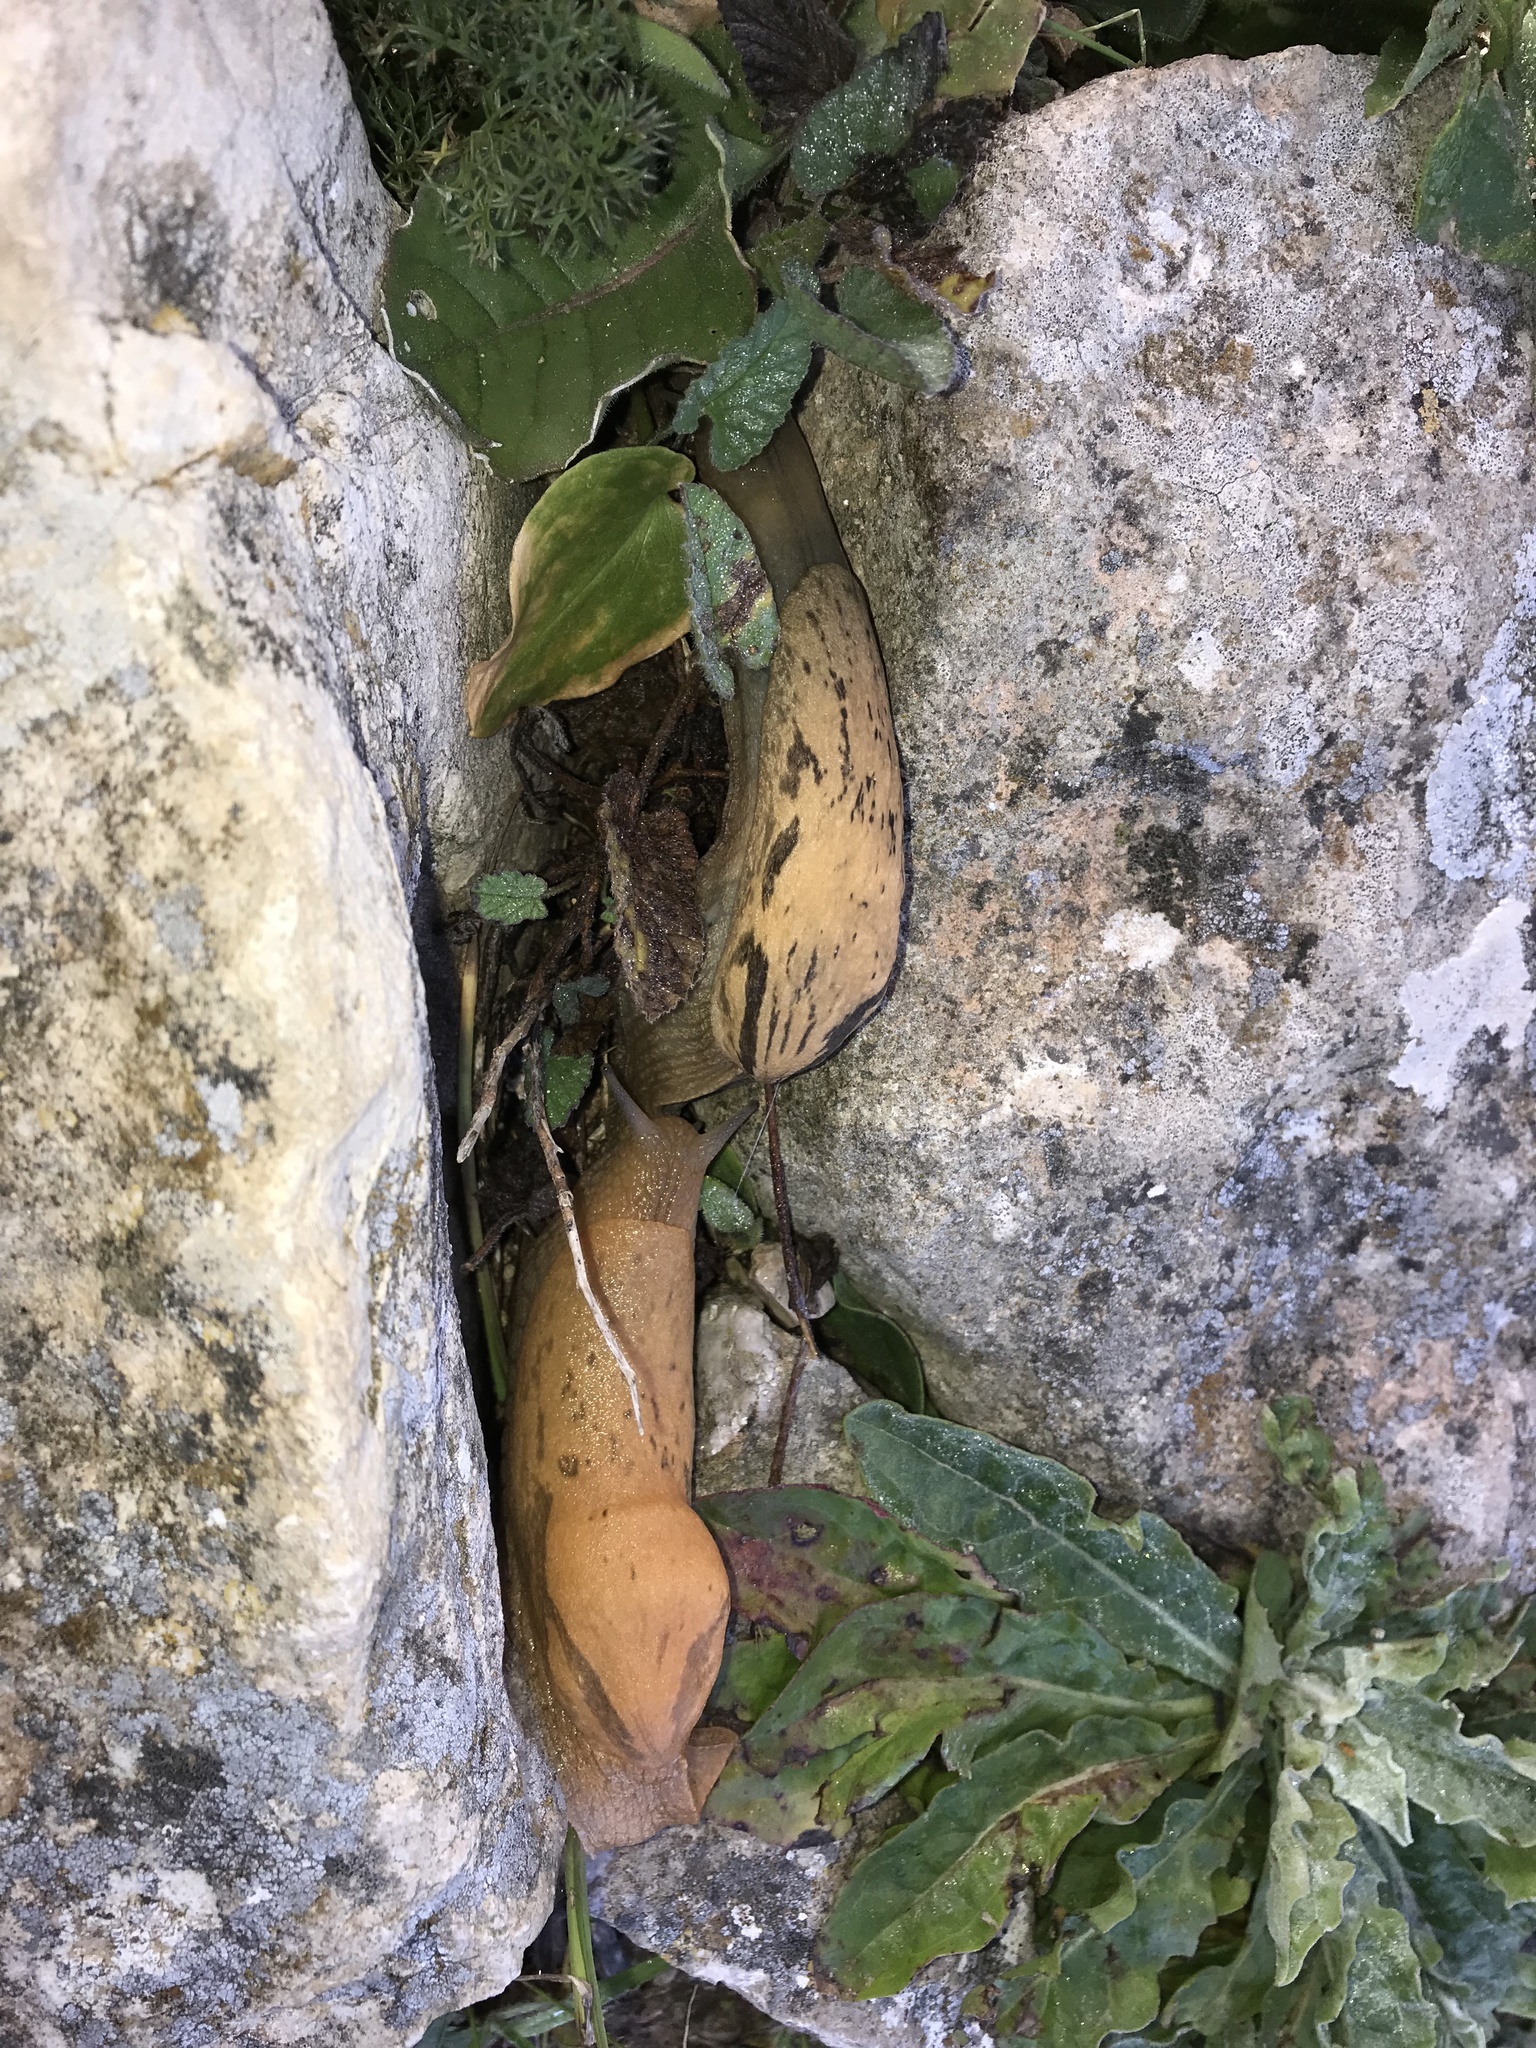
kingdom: Animalia
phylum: Mollusca
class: Gastropoda
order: Stylommatophora
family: Parmacellidae
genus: Drusia
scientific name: Drusia alexantoni
